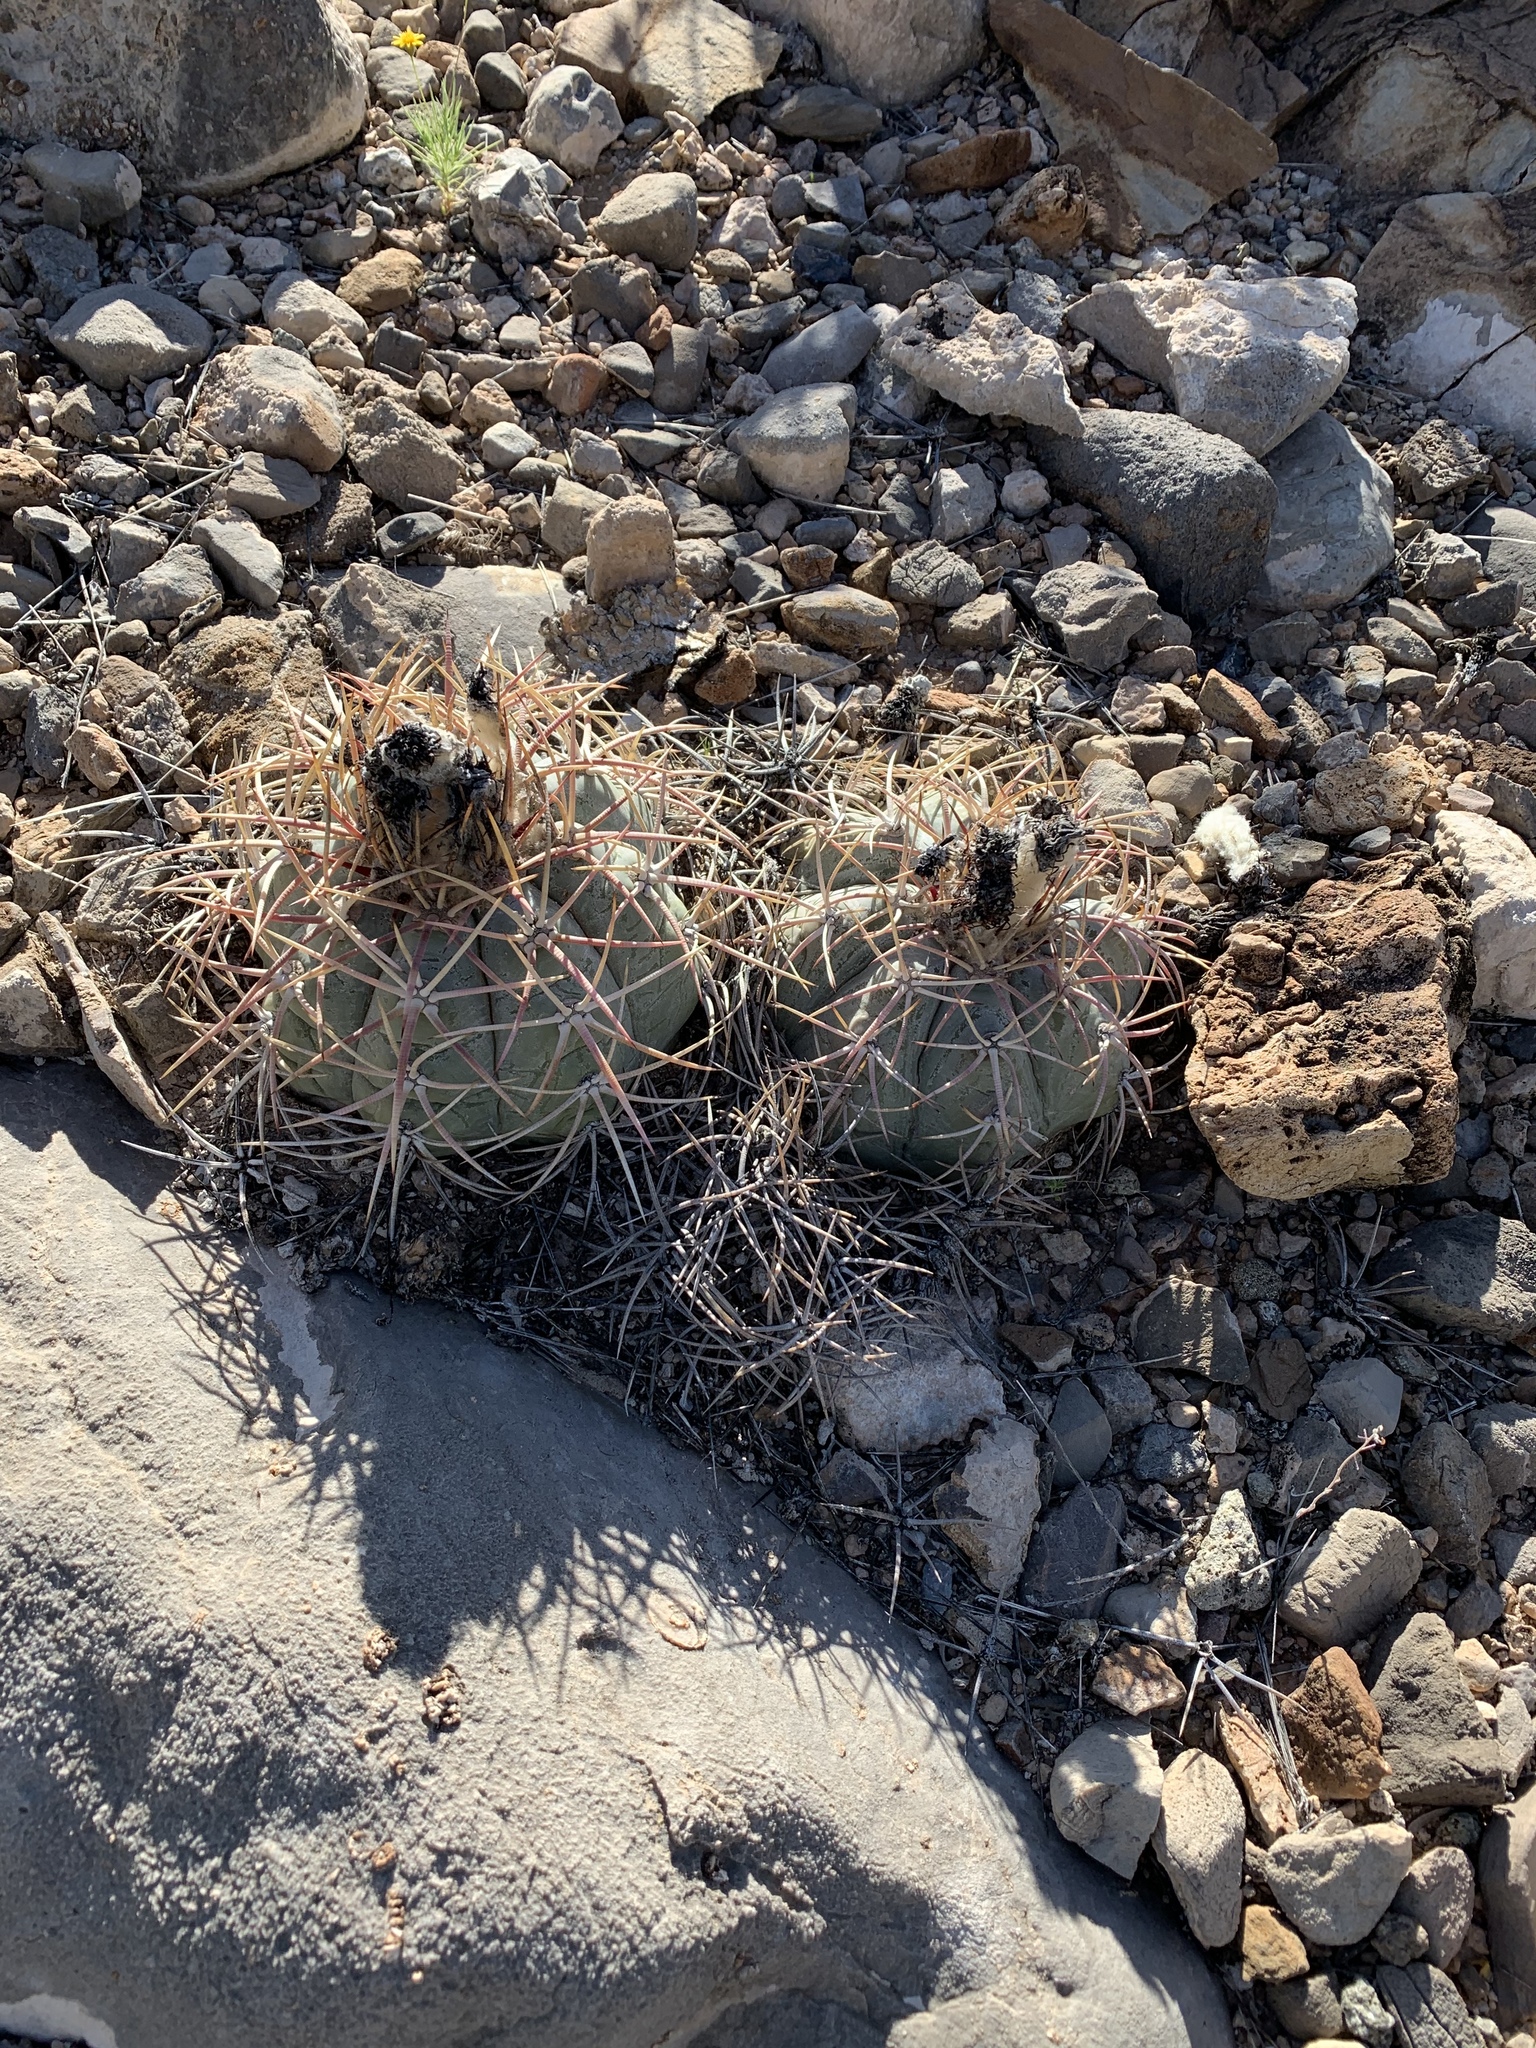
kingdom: Plantae
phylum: Tracheophyta
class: Magnoliopsida
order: Caryophyllales
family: Cactaceae
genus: Echinocactus
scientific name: Echinocactus horizonthalonius
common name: Devilshead
